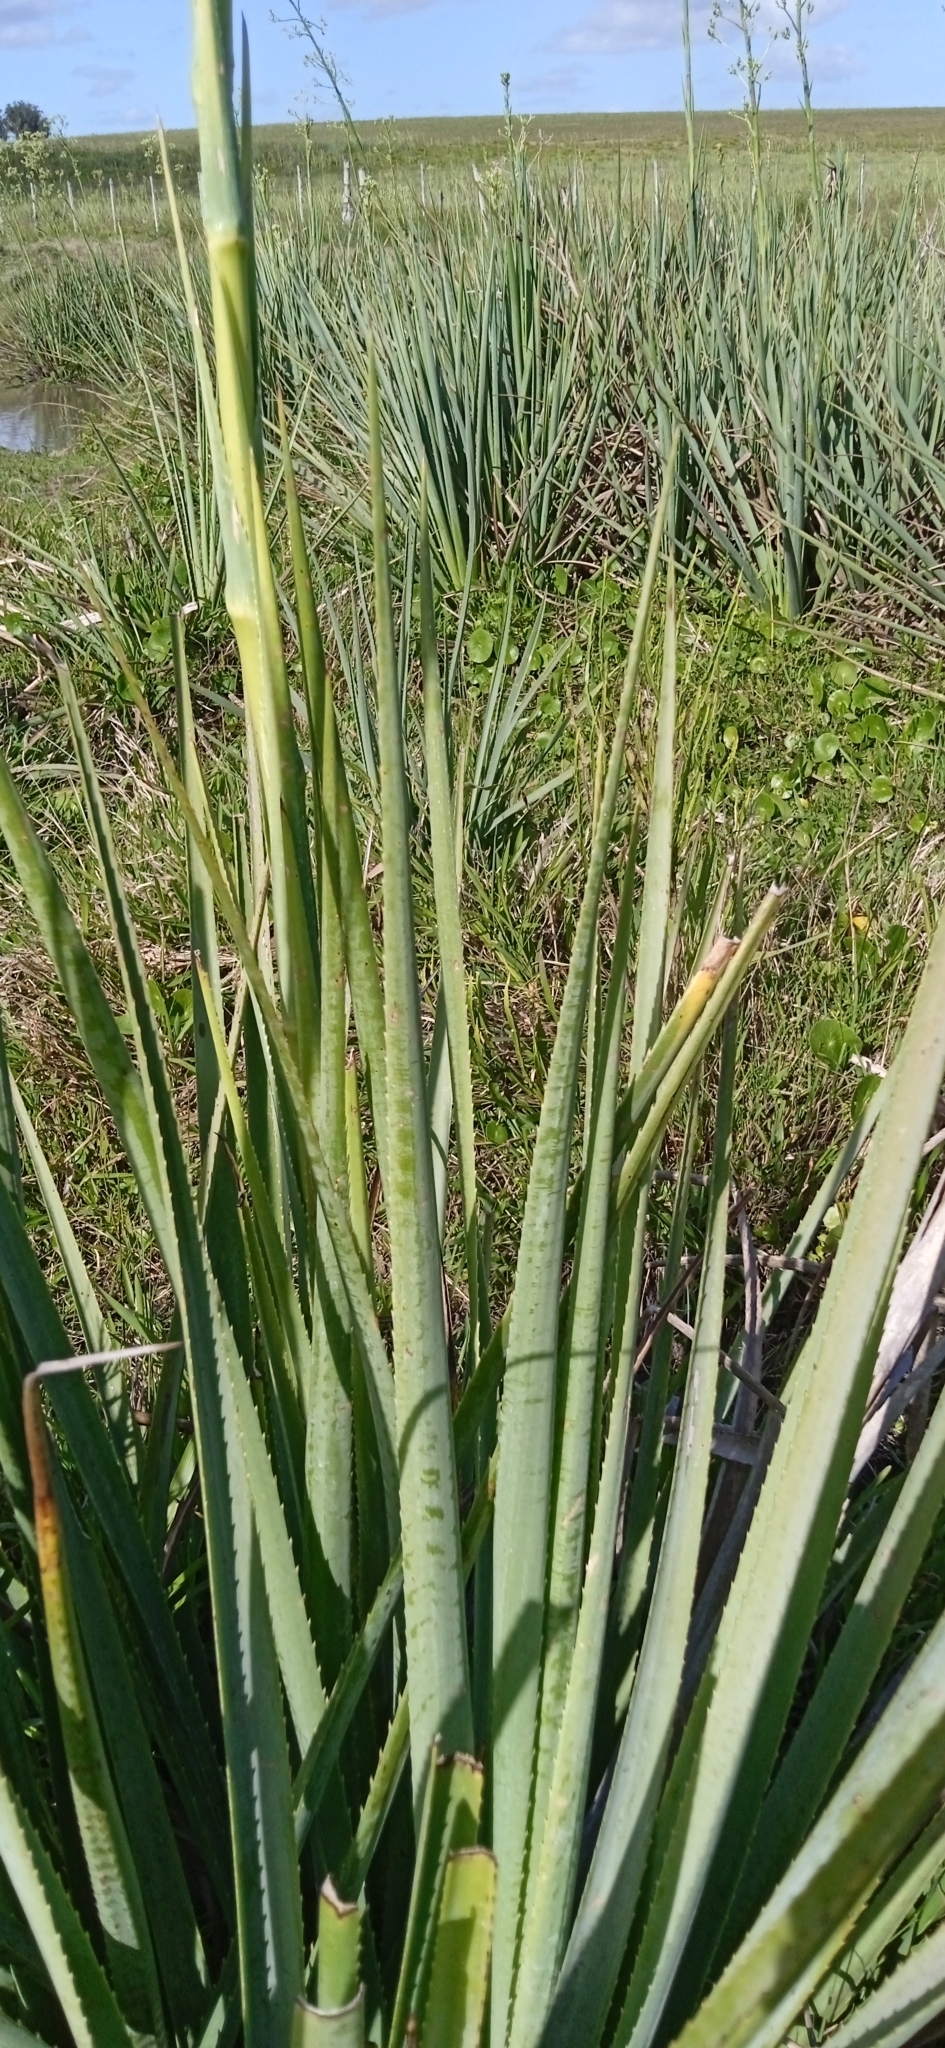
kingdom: Plantae
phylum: Tracheophyta
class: Magnoliopsida
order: Apiales
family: Apiaceae
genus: Eryngium
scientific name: Eryngium pandanifolium
